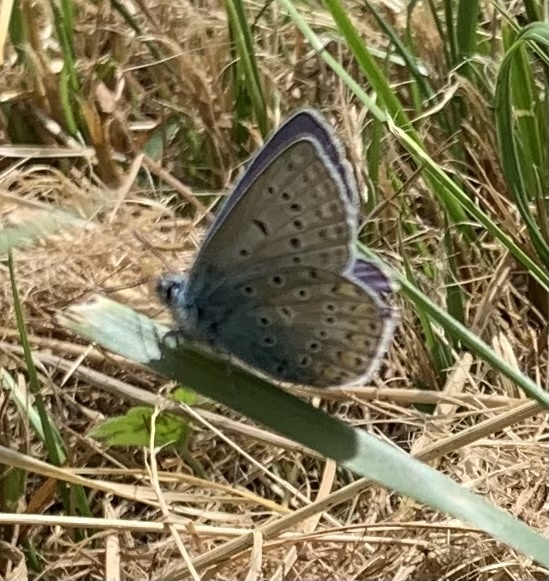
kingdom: Animalia
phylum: Arthropoda
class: Insecta
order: Lepidoptera
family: Lycaenidae
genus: Polyommatus
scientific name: Polyommatus icarus
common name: Common blue
